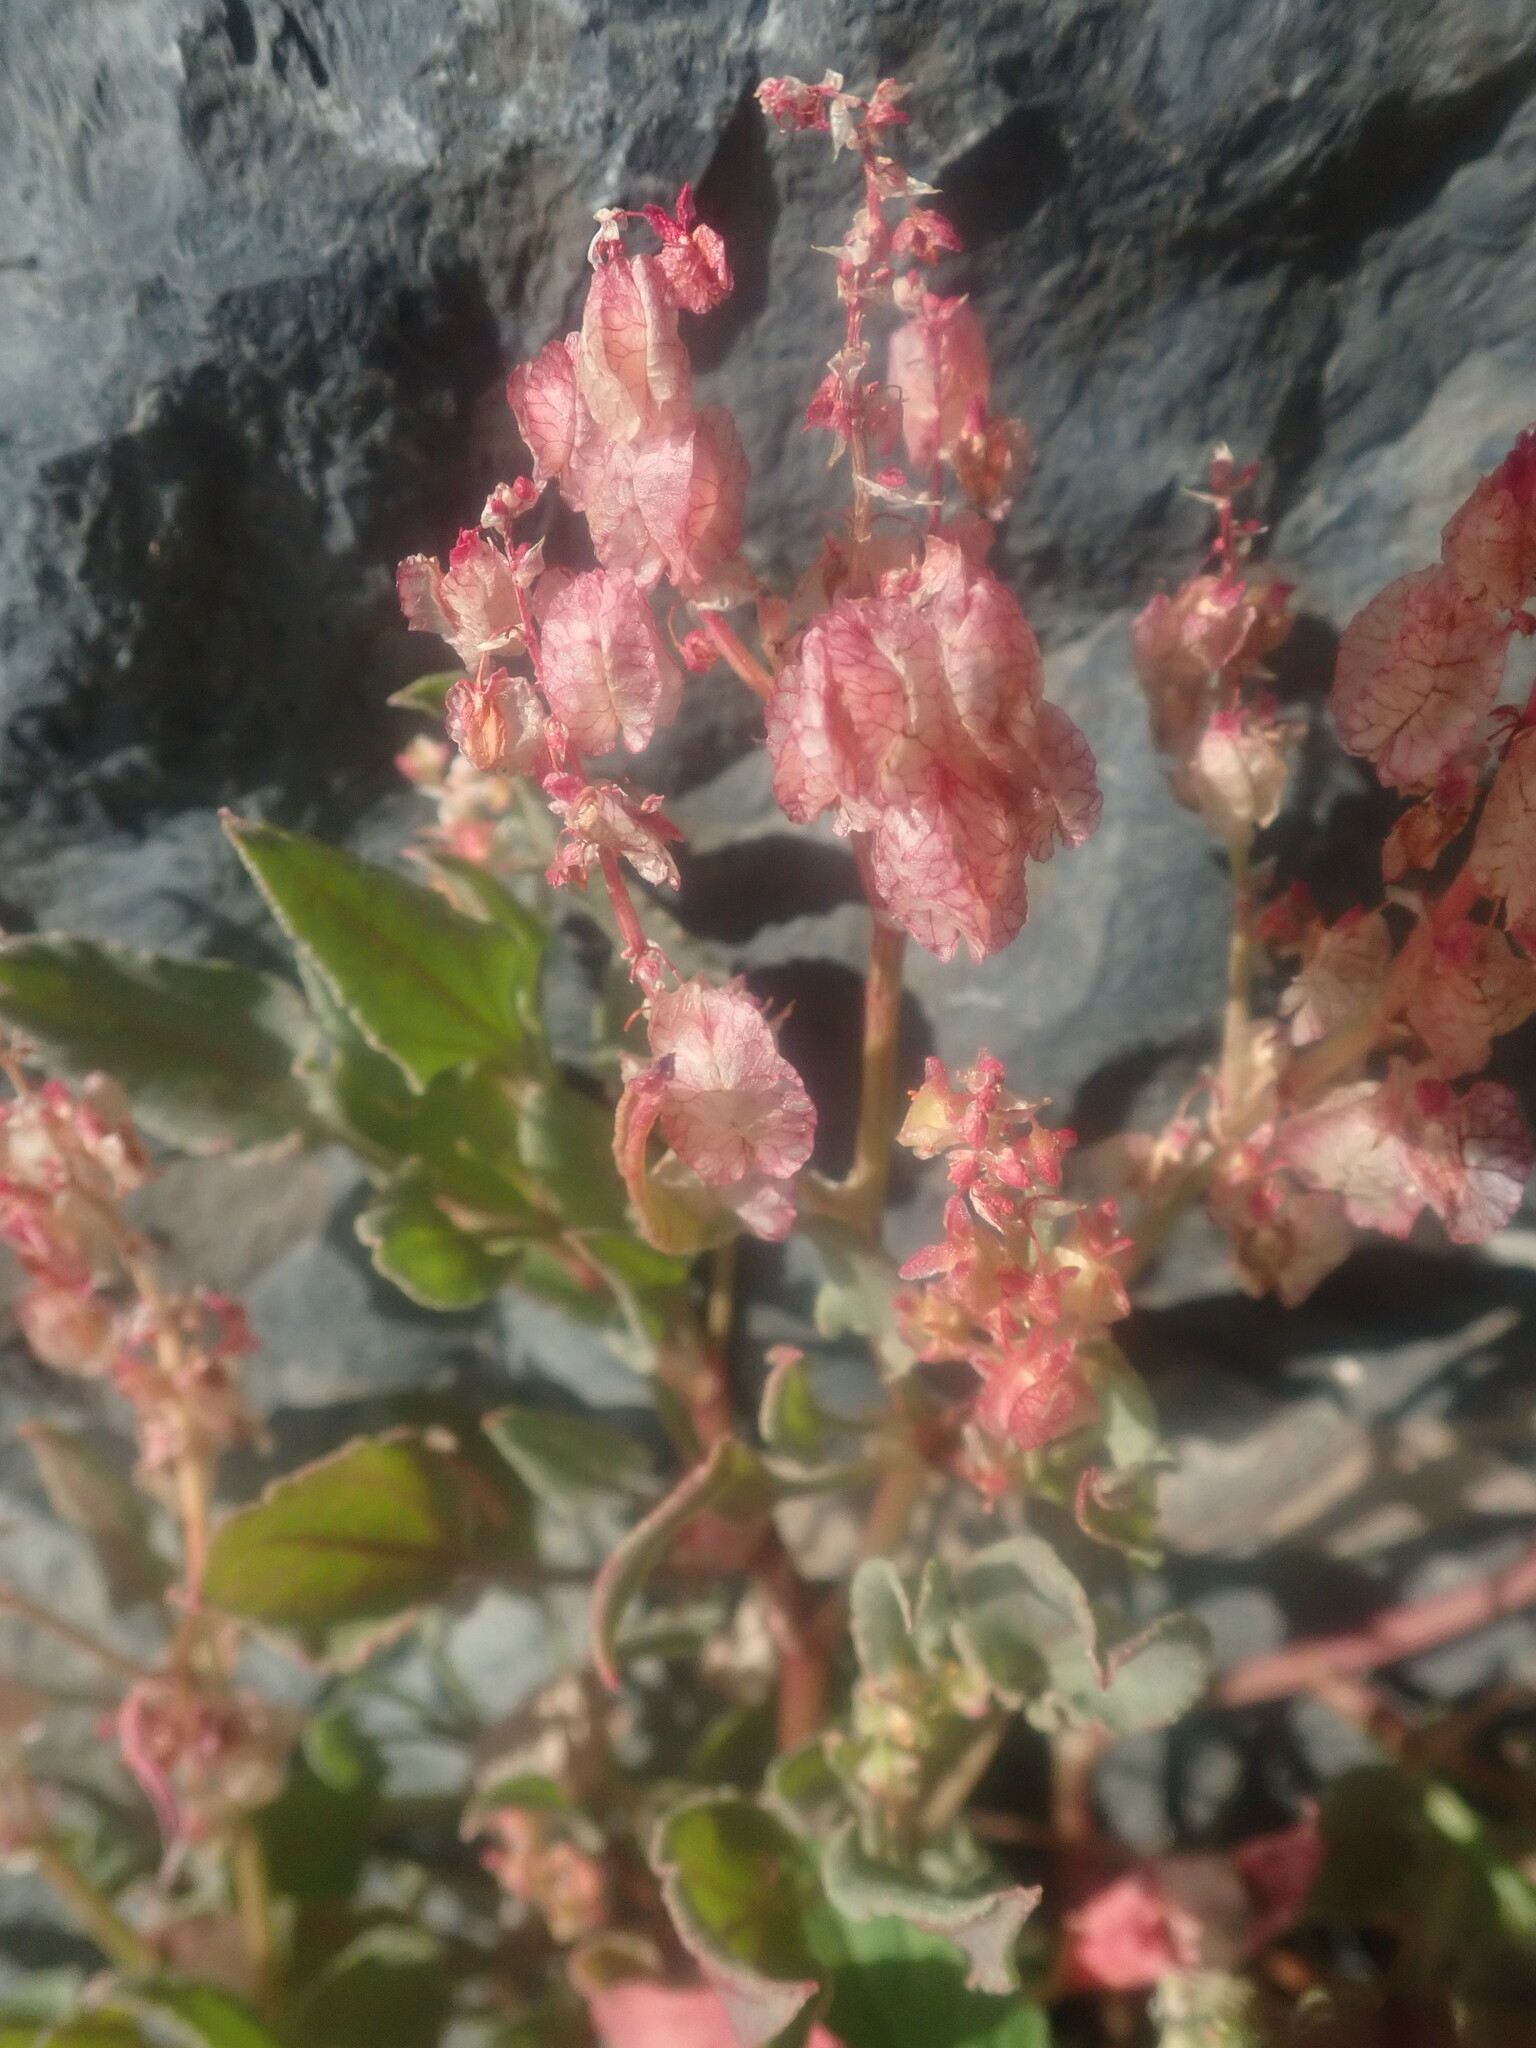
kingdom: Plantae
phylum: Tracheophyta
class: Magnoliopsida
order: Caryophyllales
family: Polygonaceae
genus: Rumex
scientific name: Rumex simpliciflorus
